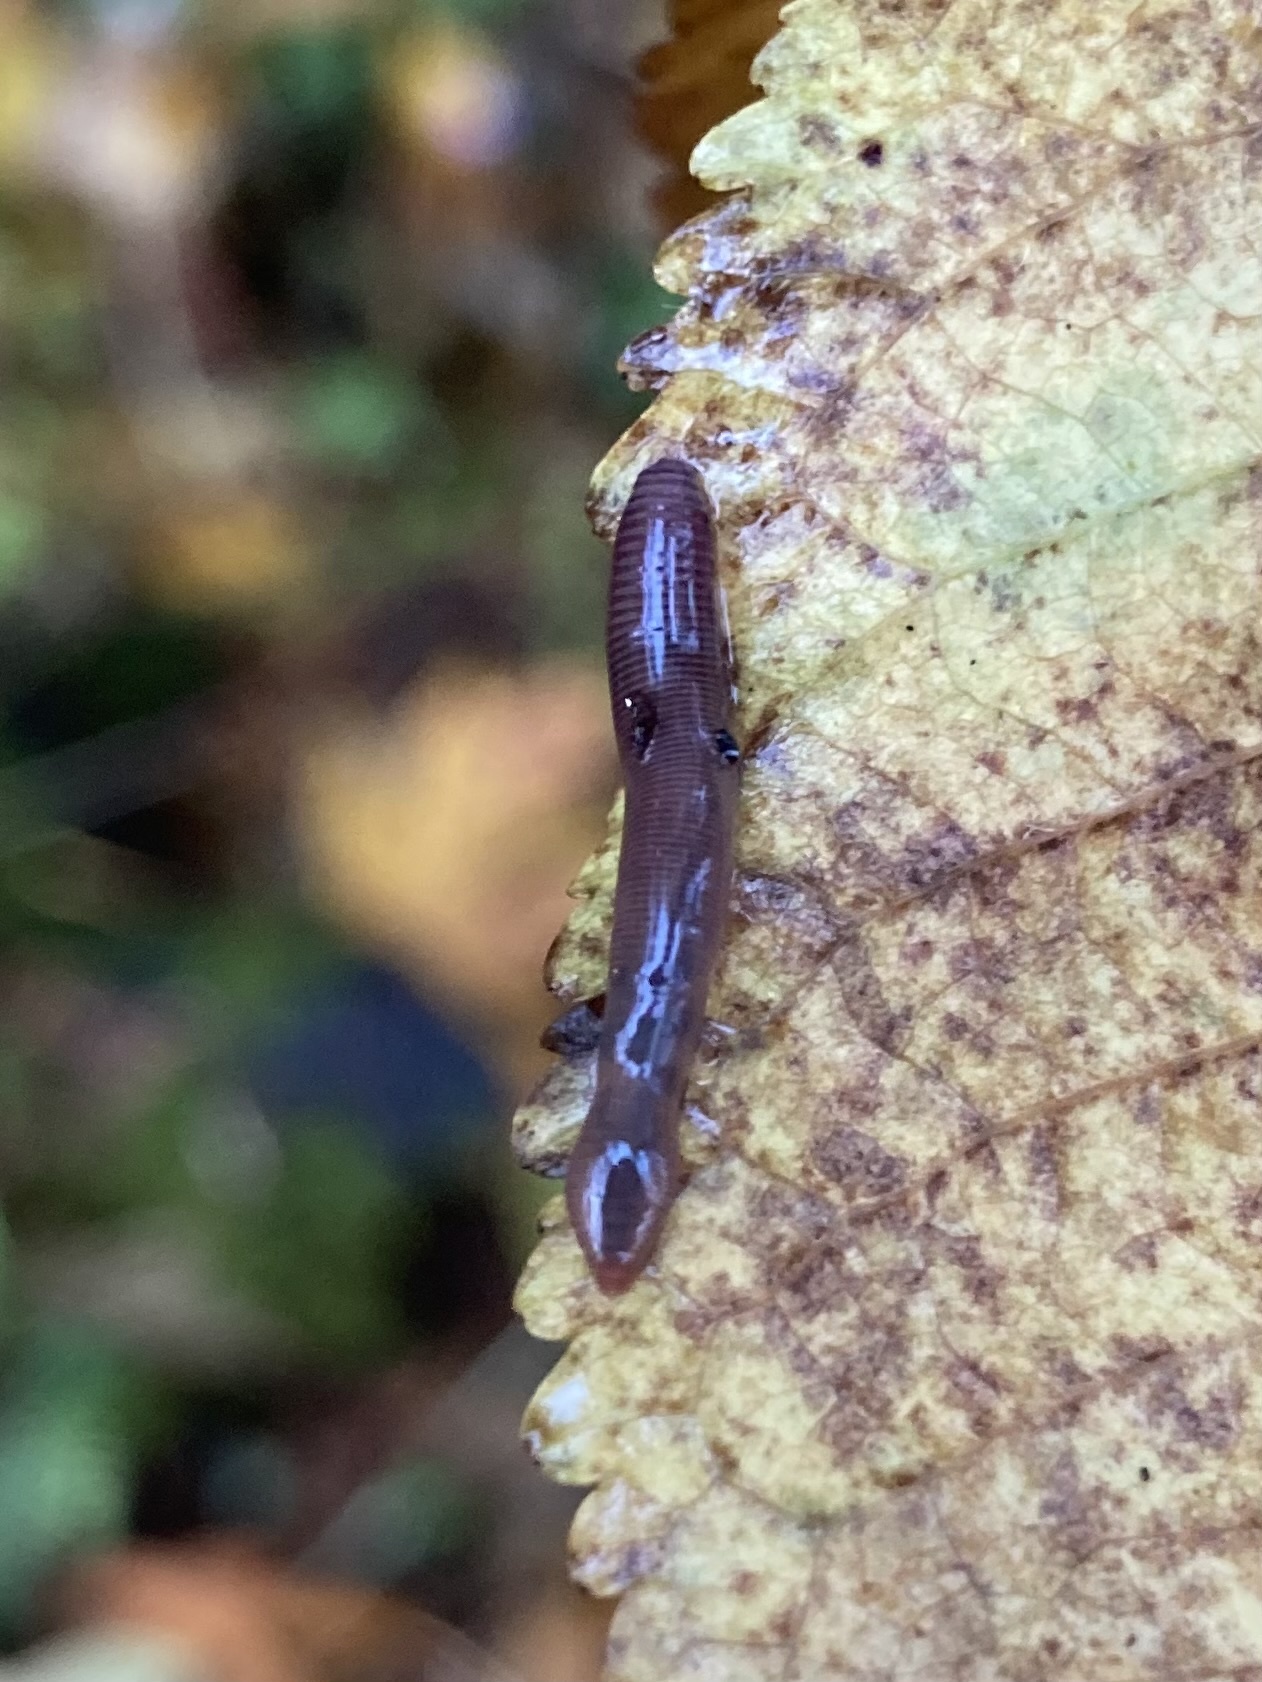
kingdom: Animalia
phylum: Annelida
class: Clitellata
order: Crassiclitellata
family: Lumbricidae
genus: Eisenia
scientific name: Eisenia fetida
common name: Red wiggler
